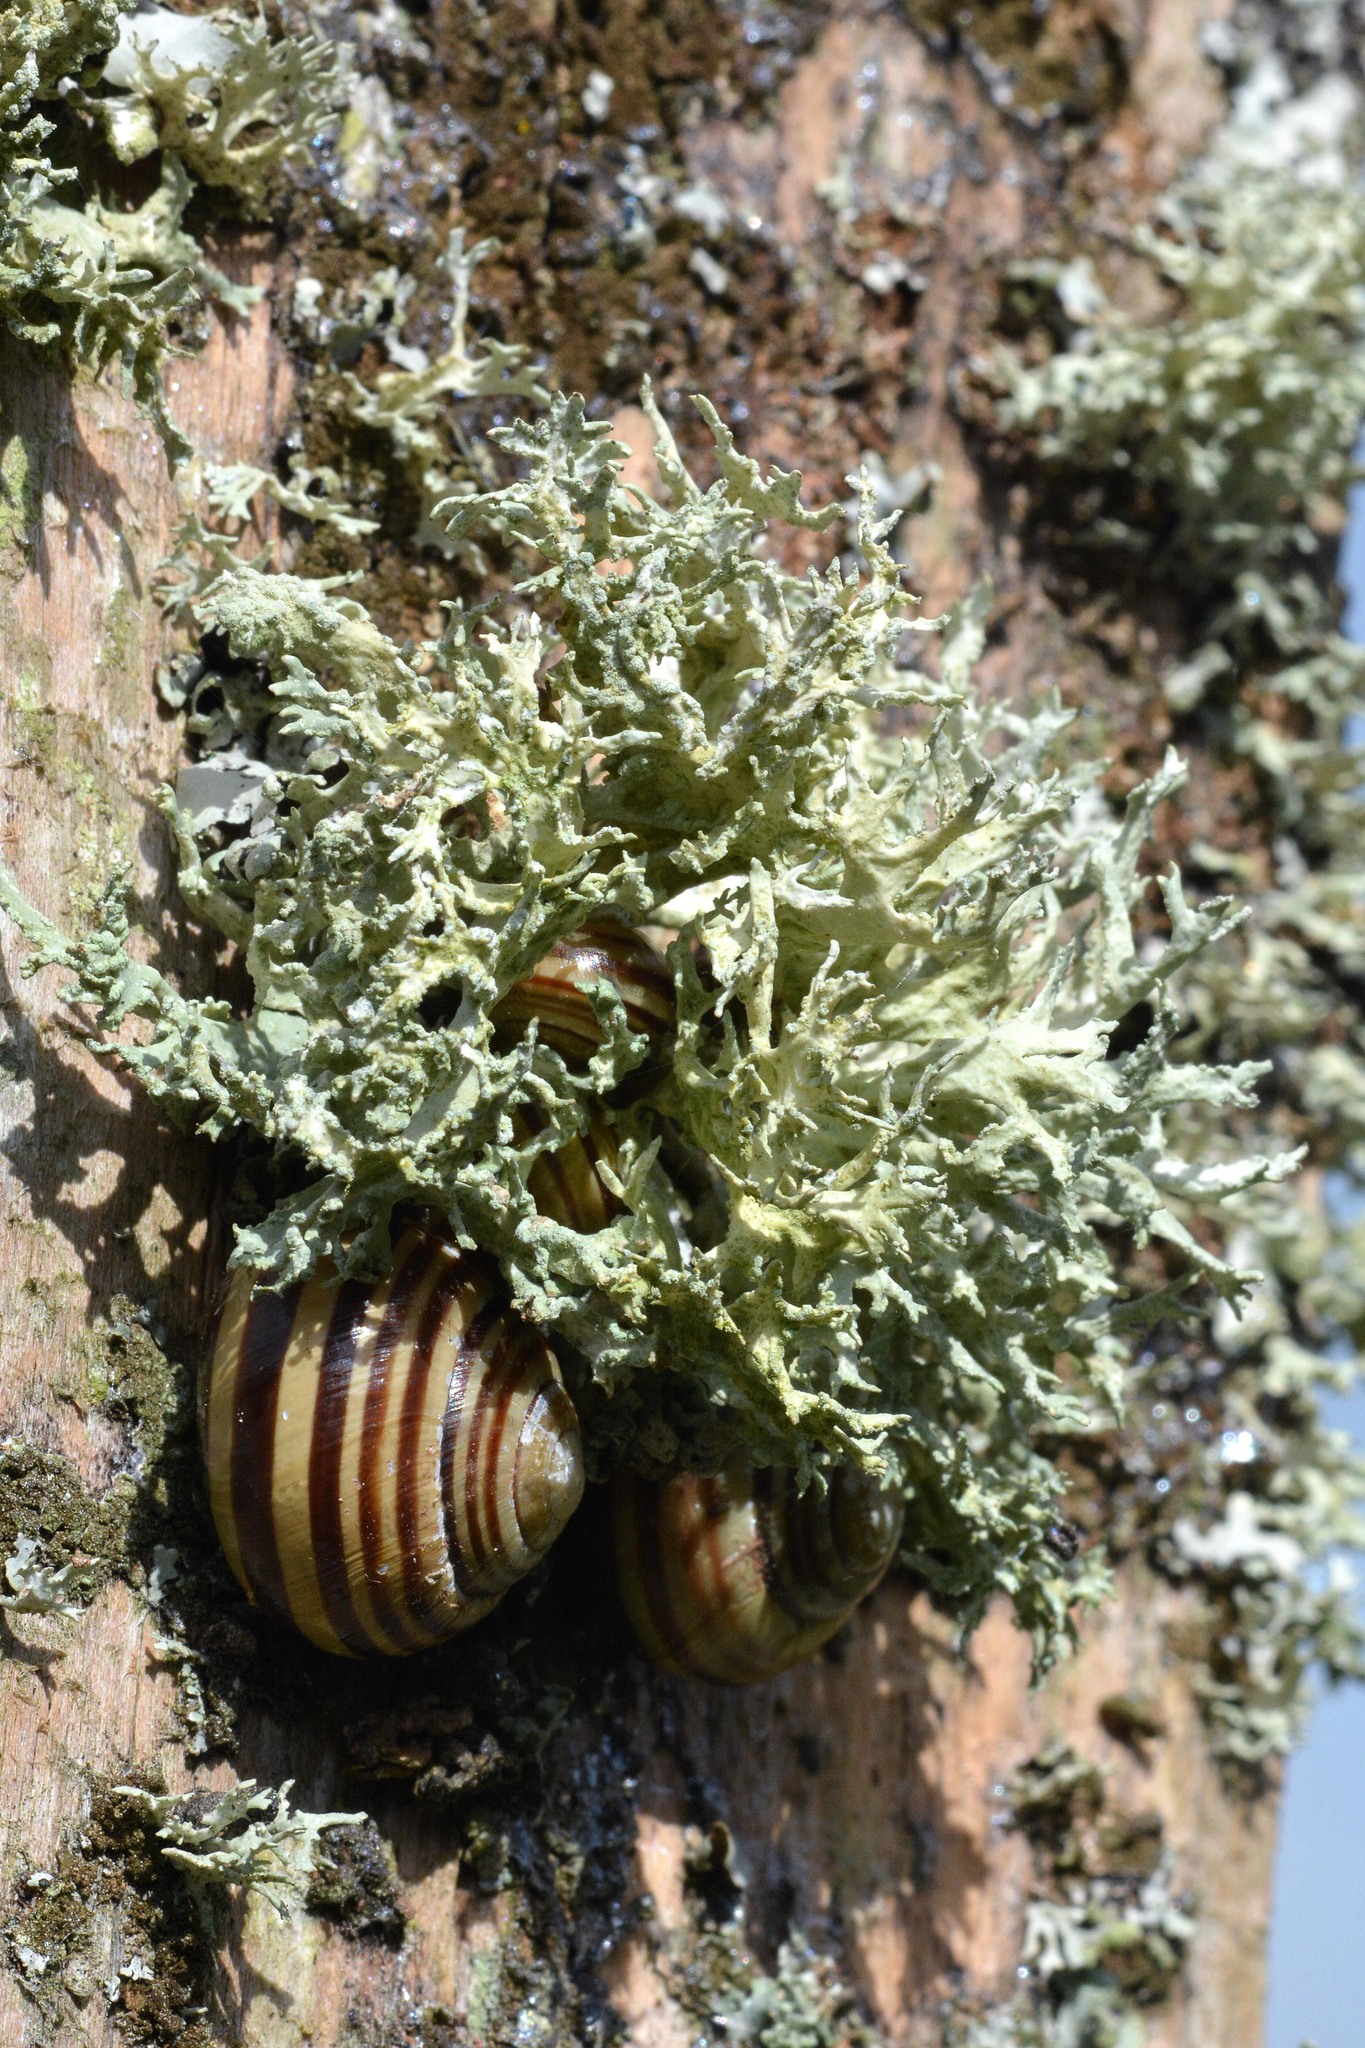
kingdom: Fungi
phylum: Ascomycota
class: Lecanoromycetes
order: Lecanorales
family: Parmeliaceae
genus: Evernia
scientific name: Evernia prunastri
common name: Oak moss
